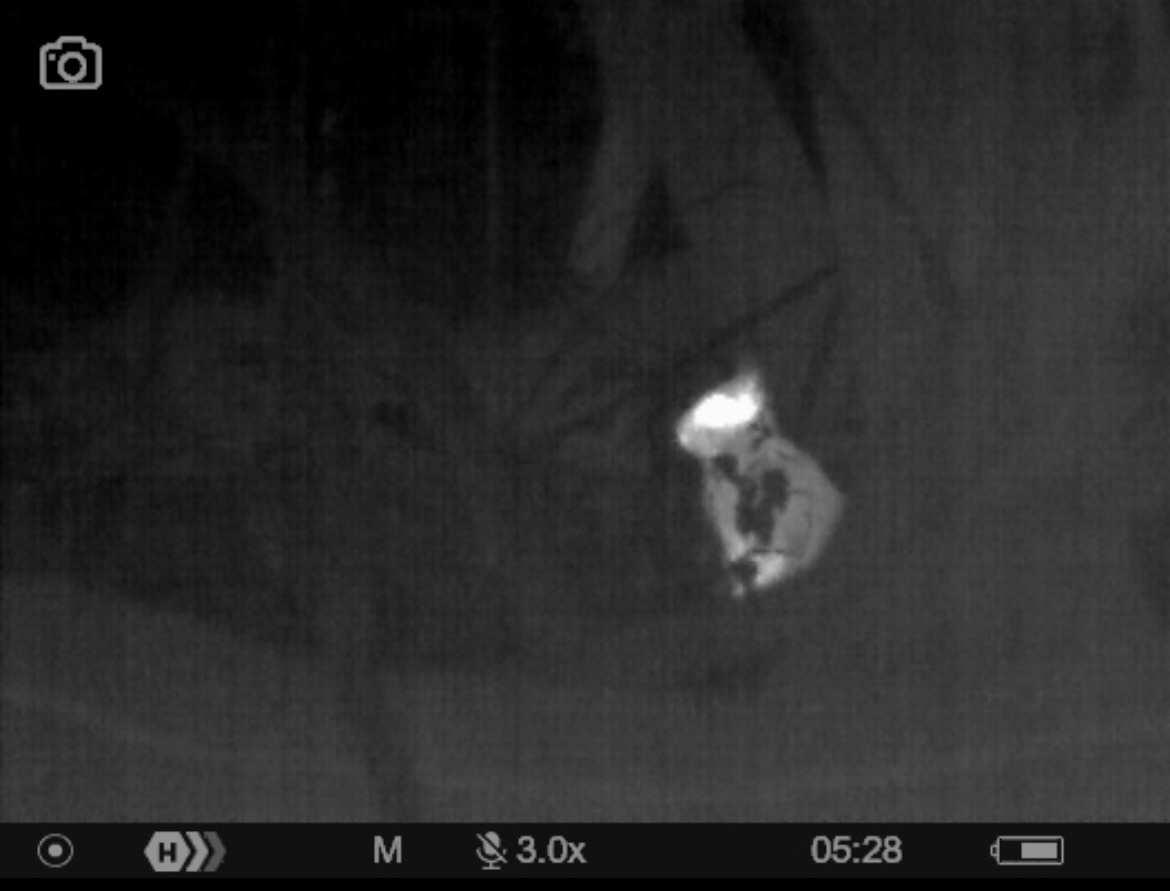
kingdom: Animalia
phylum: Chordata
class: Mammalia
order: Lagomorpha
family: Leporidae
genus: Sylvilagus
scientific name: Sylvilagus floridanus
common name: Eastern cottontail
